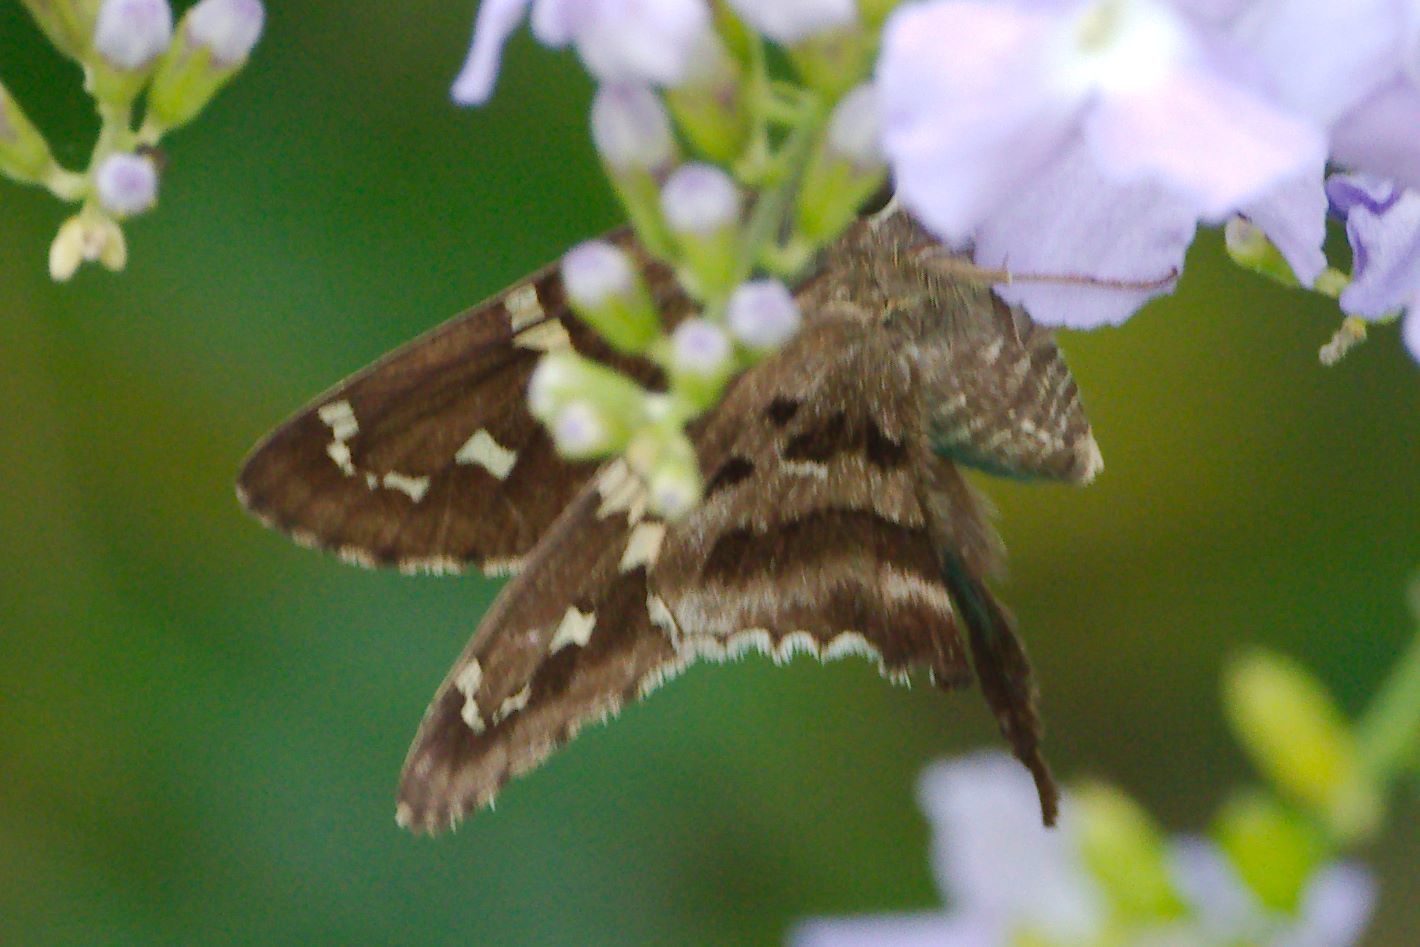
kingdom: Animalia
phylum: Arthropoda
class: Insecta
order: Lepidoptera
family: Hesperiidae
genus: Urbanus
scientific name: Urbanus proteus
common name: Long-tailed skipper
